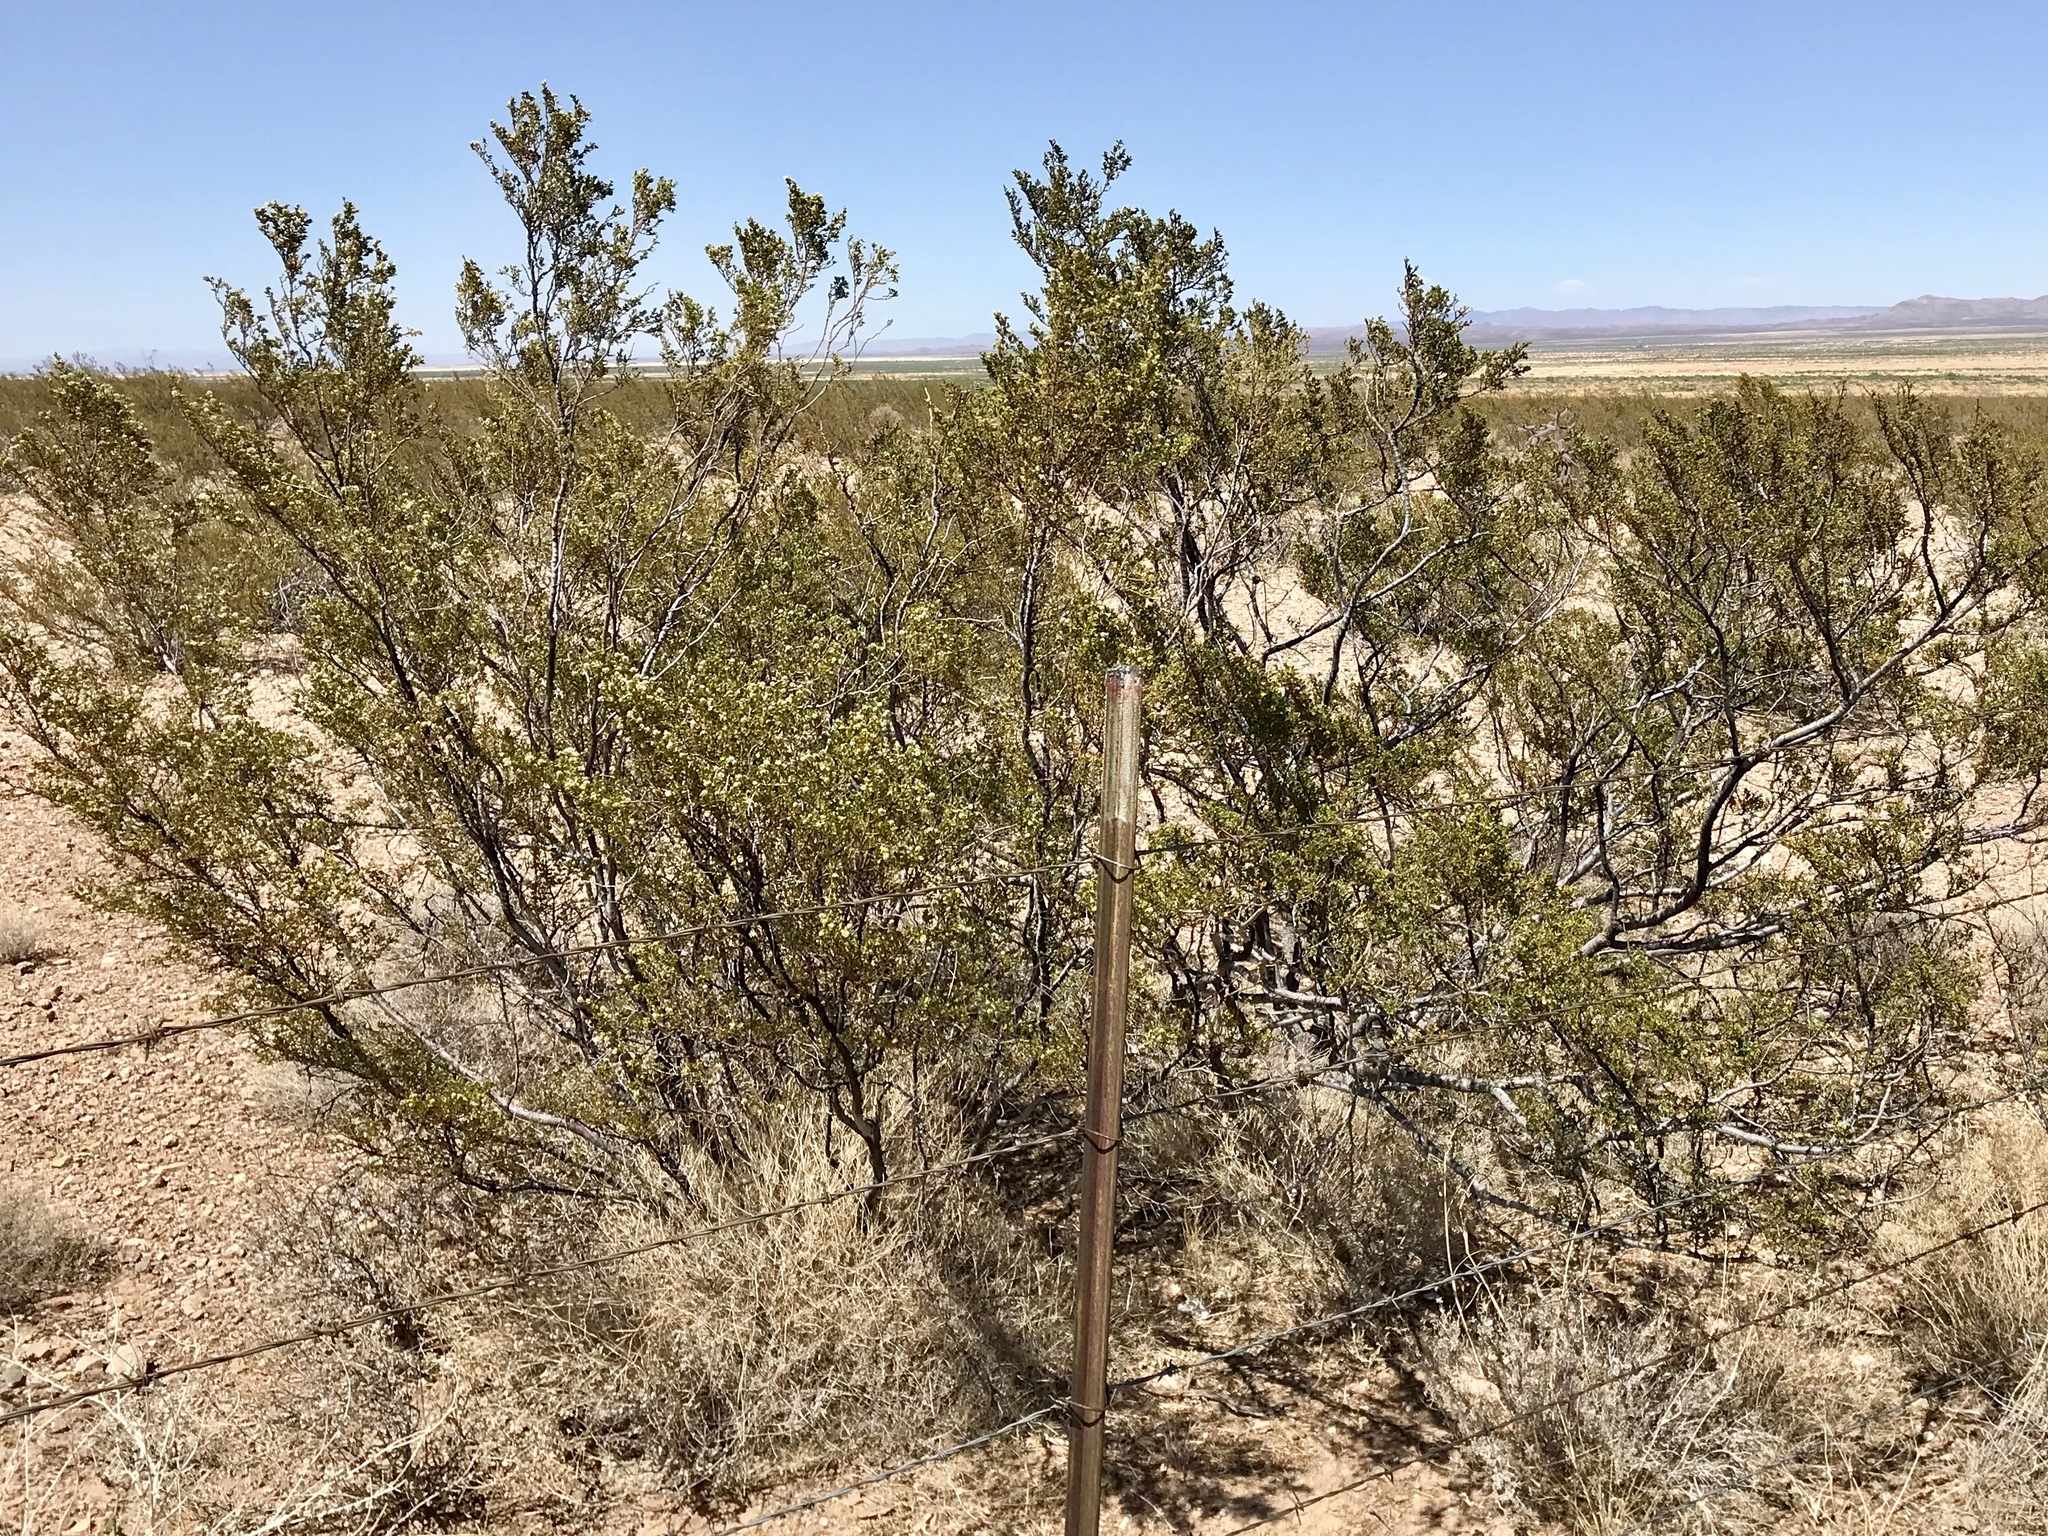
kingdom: Plantae
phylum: Tracheophyta
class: Magnoliopsida
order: Zygophyllales
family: Zygophyllaceae
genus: Larrea
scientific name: Larrea tridentata
